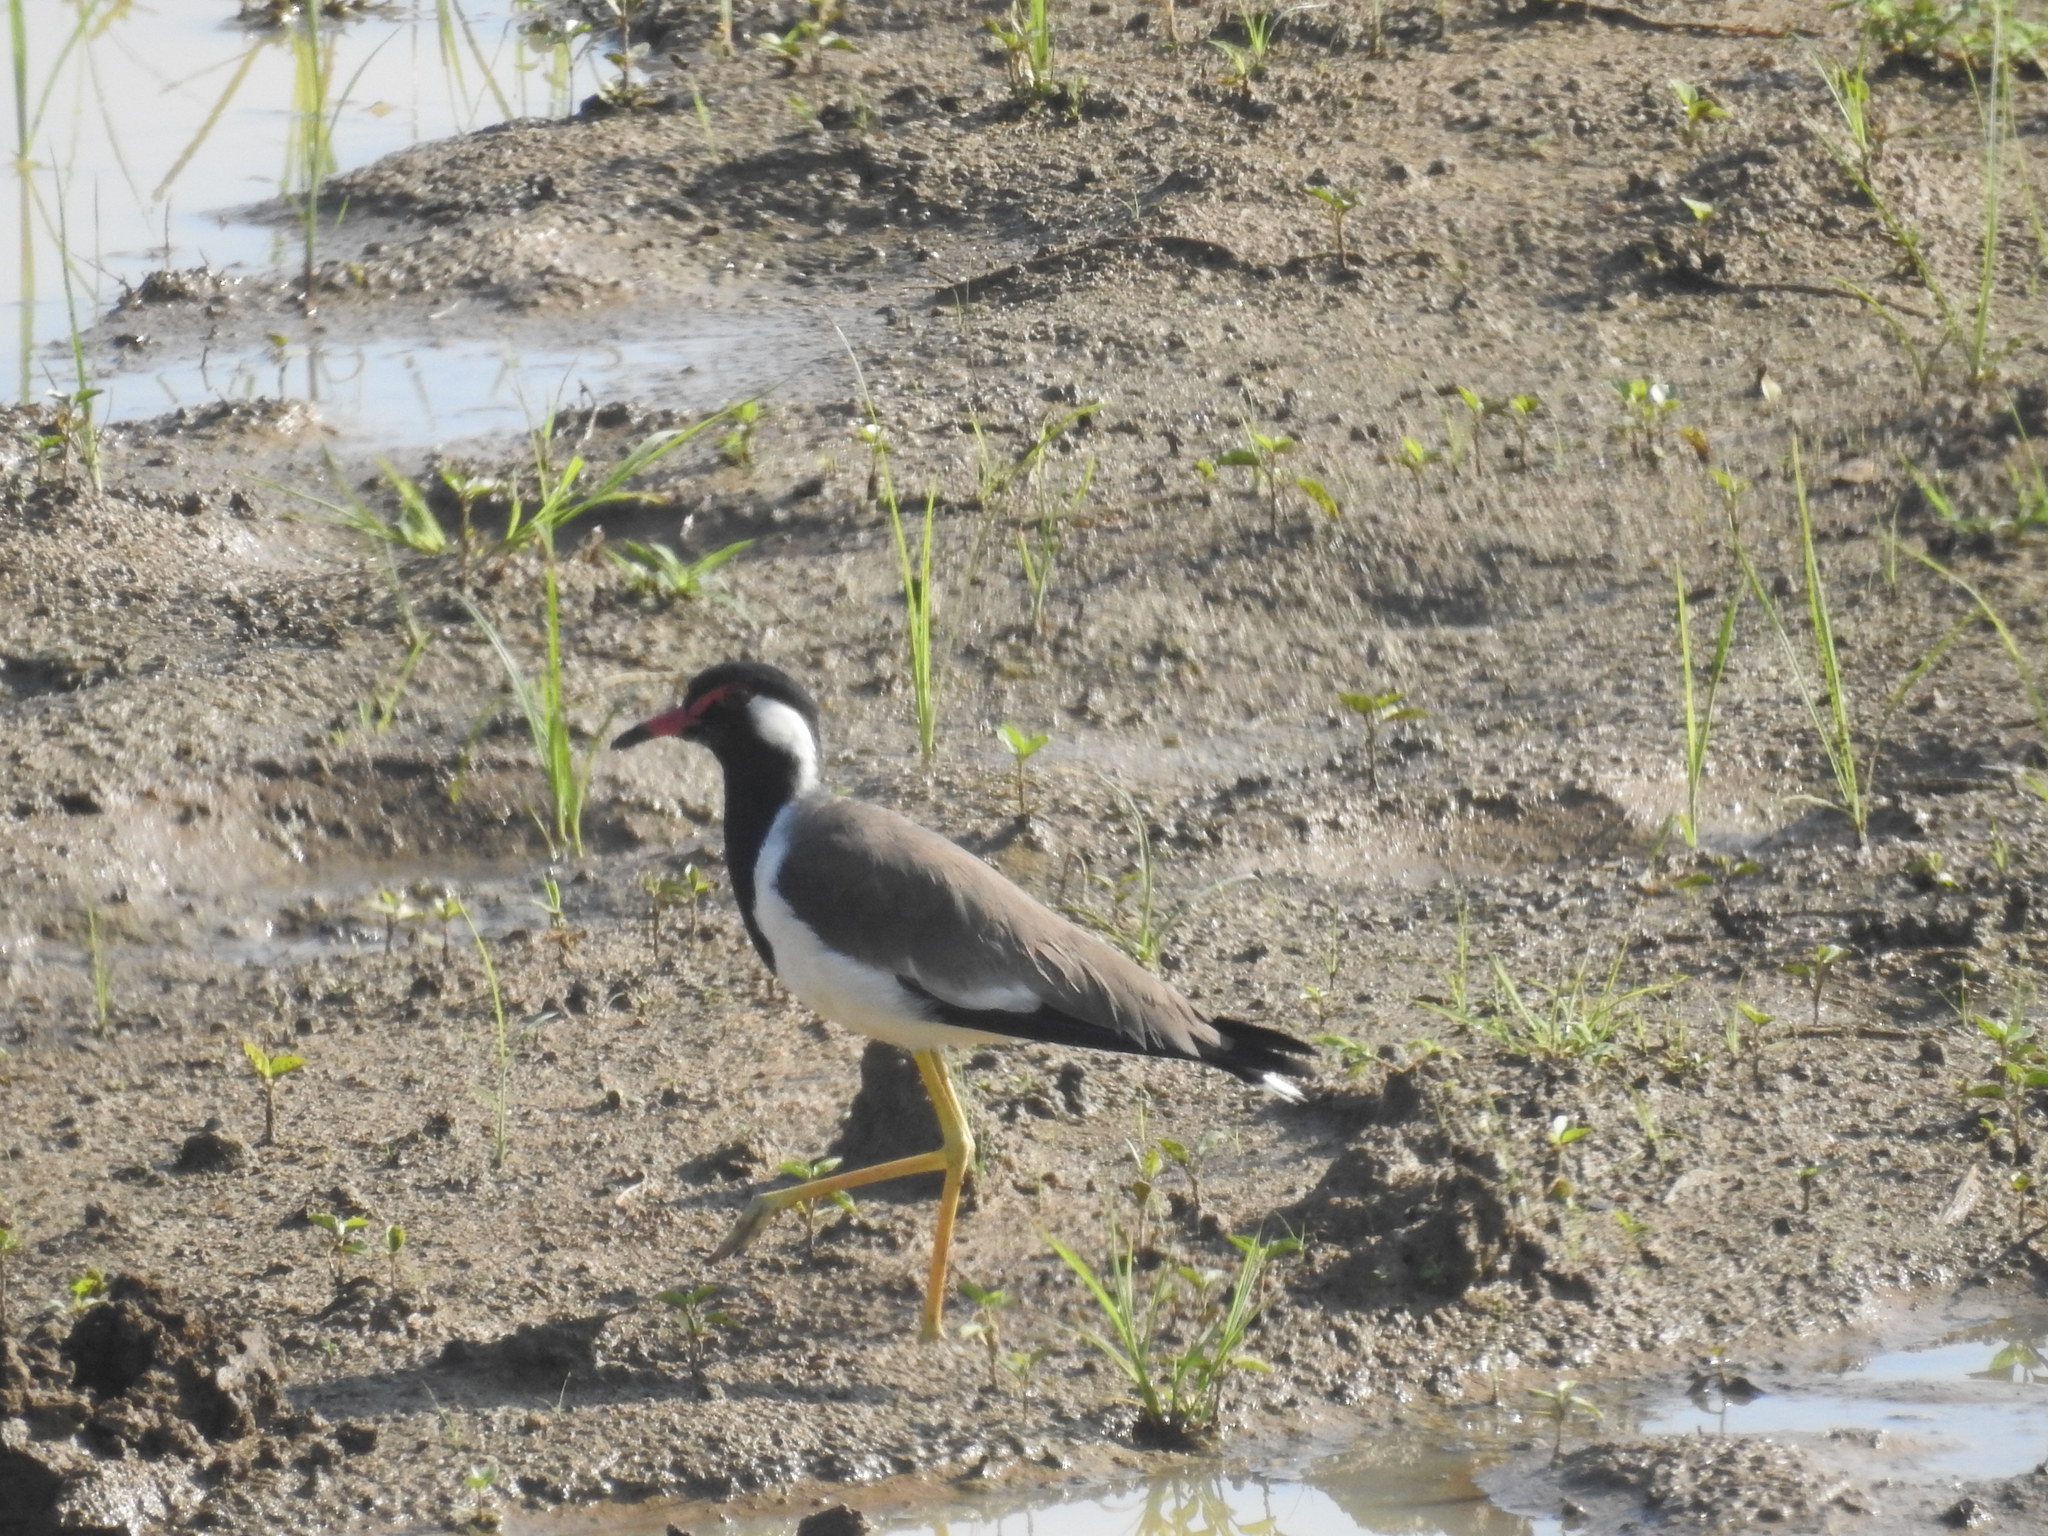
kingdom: Animalia
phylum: Chordata
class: Aves
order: Charadriiformes
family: Charadriidae
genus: Vanellus
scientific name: Vanellus indicus
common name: Red-wattled lapwing
